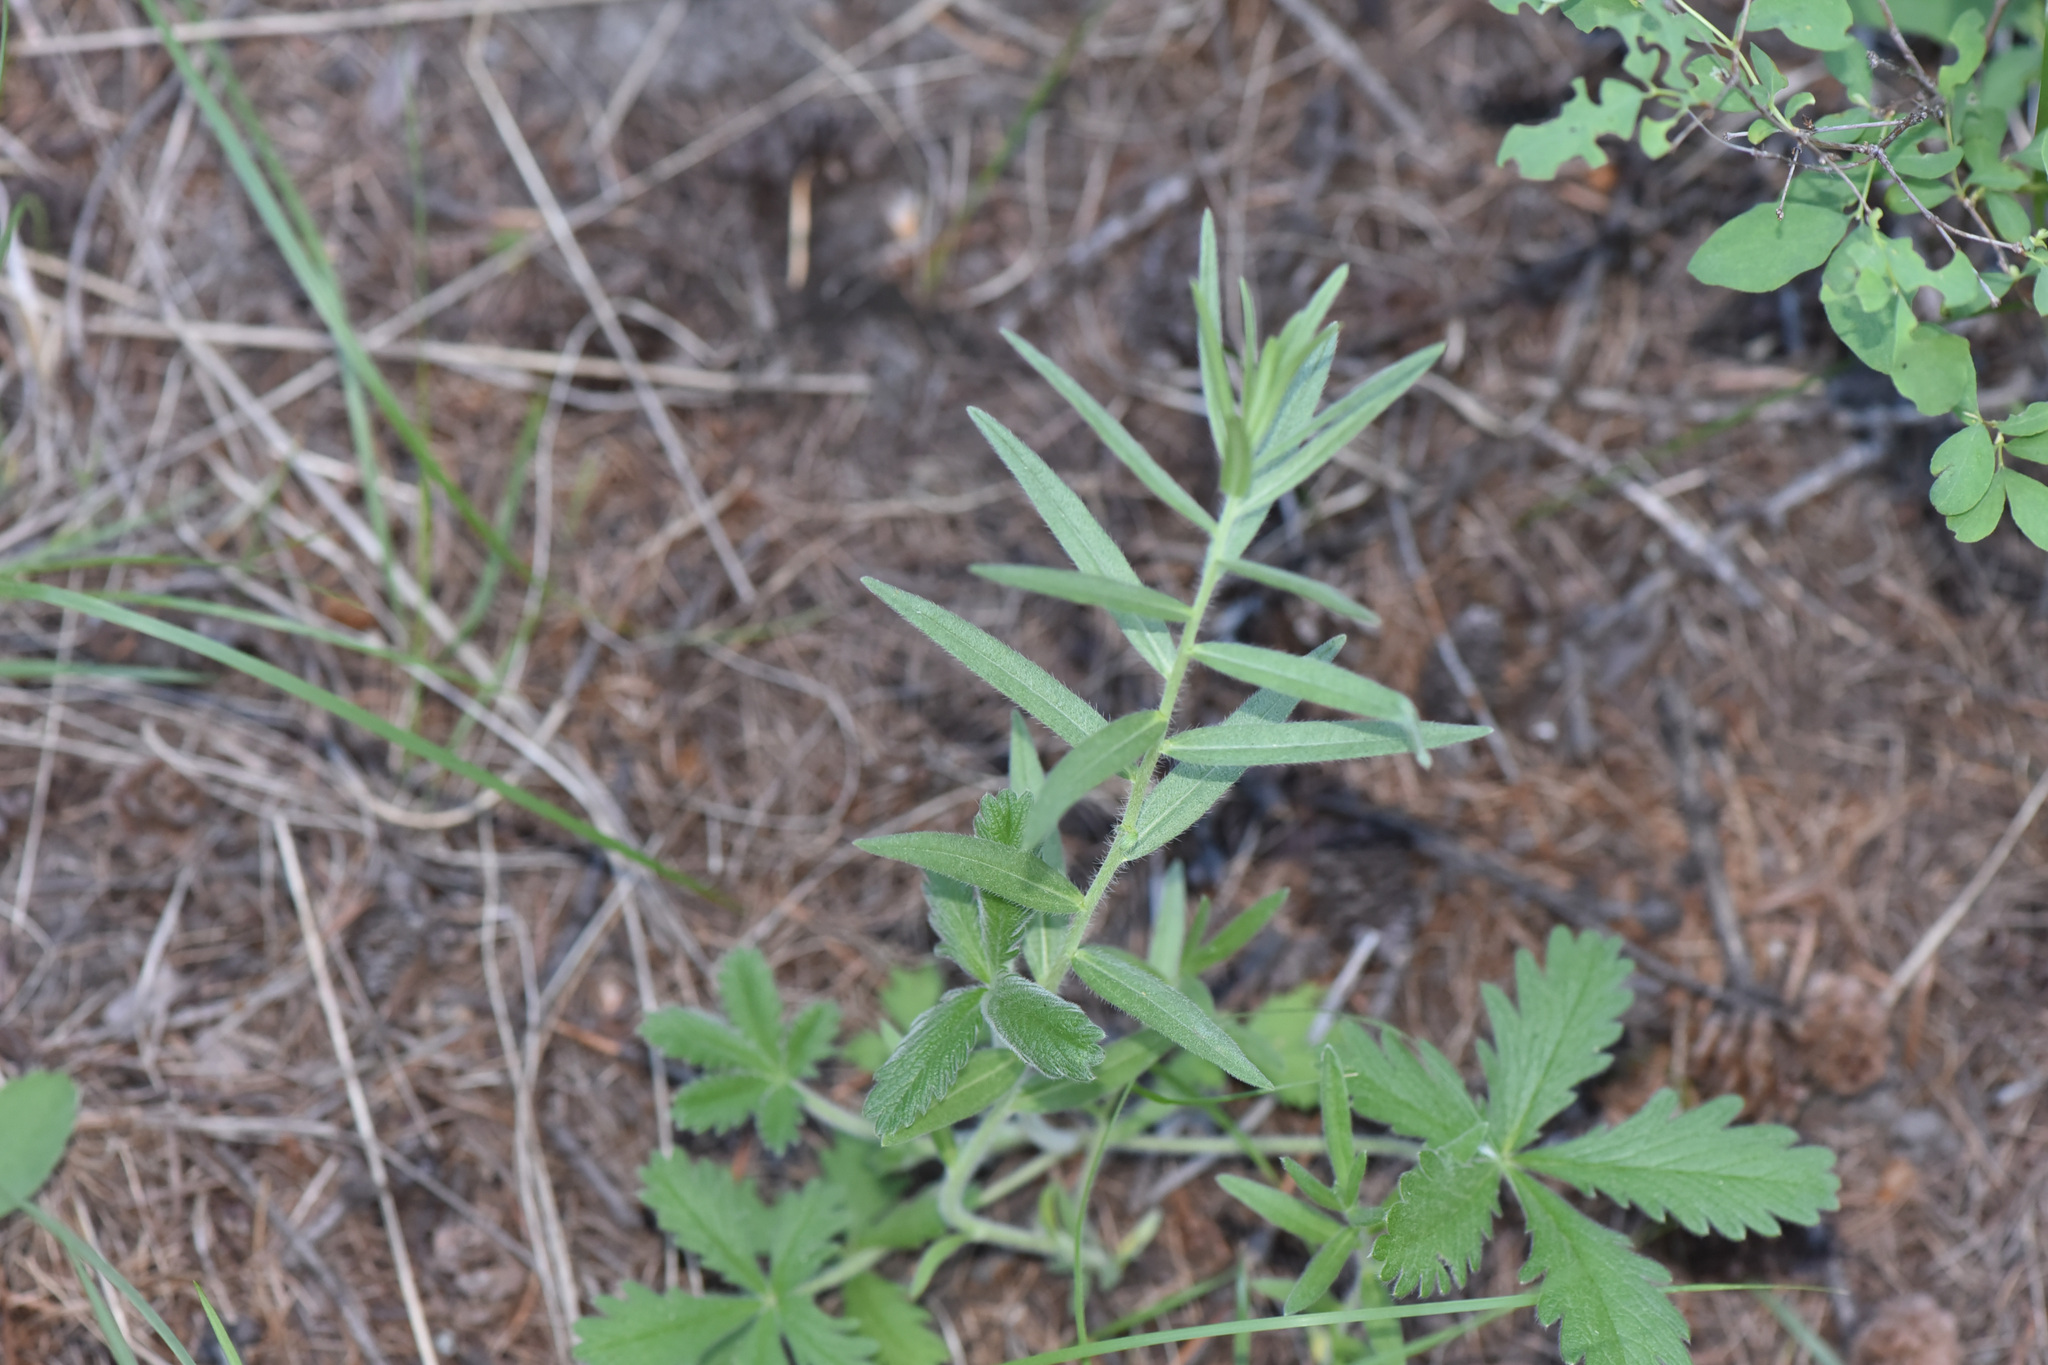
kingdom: Plantae
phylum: Tracheophyta
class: Magnoliopsida
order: Boraginales
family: Boraginaceae
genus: Lithospermum
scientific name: Lithospermum ruderale
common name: Western gromwell
